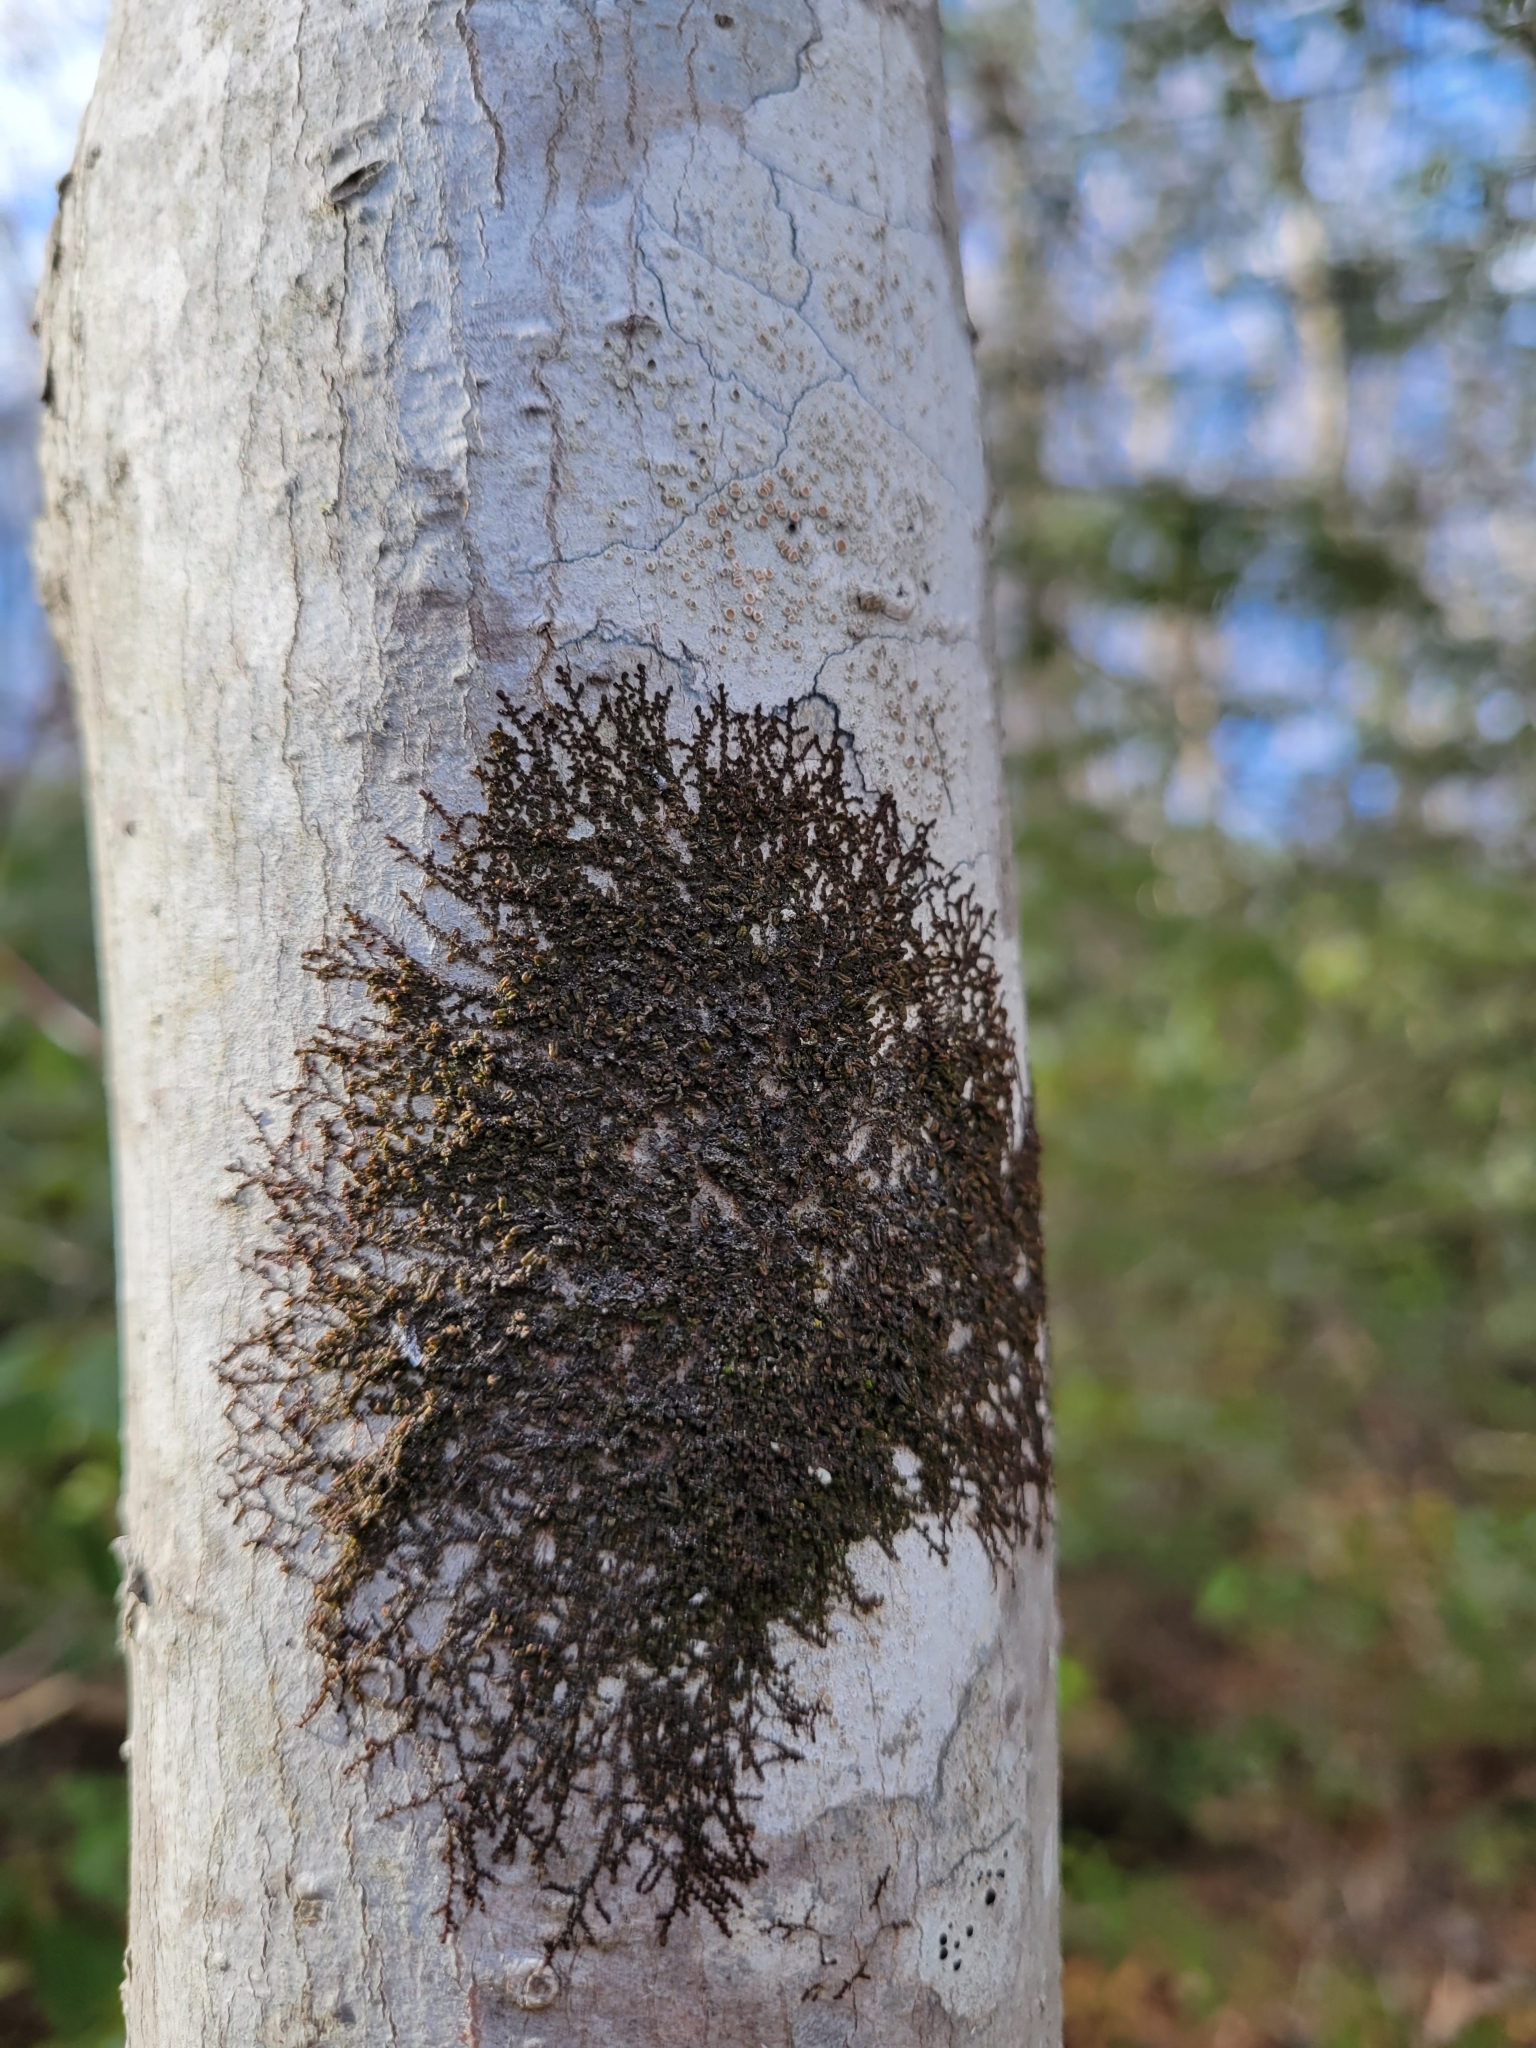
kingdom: Plantae
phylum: Marchantiophyta
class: Jungermanniopsida
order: Porellales
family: Frullaniaceae
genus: Frullania
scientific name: Frullania eboracensis
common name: New york scalewort
